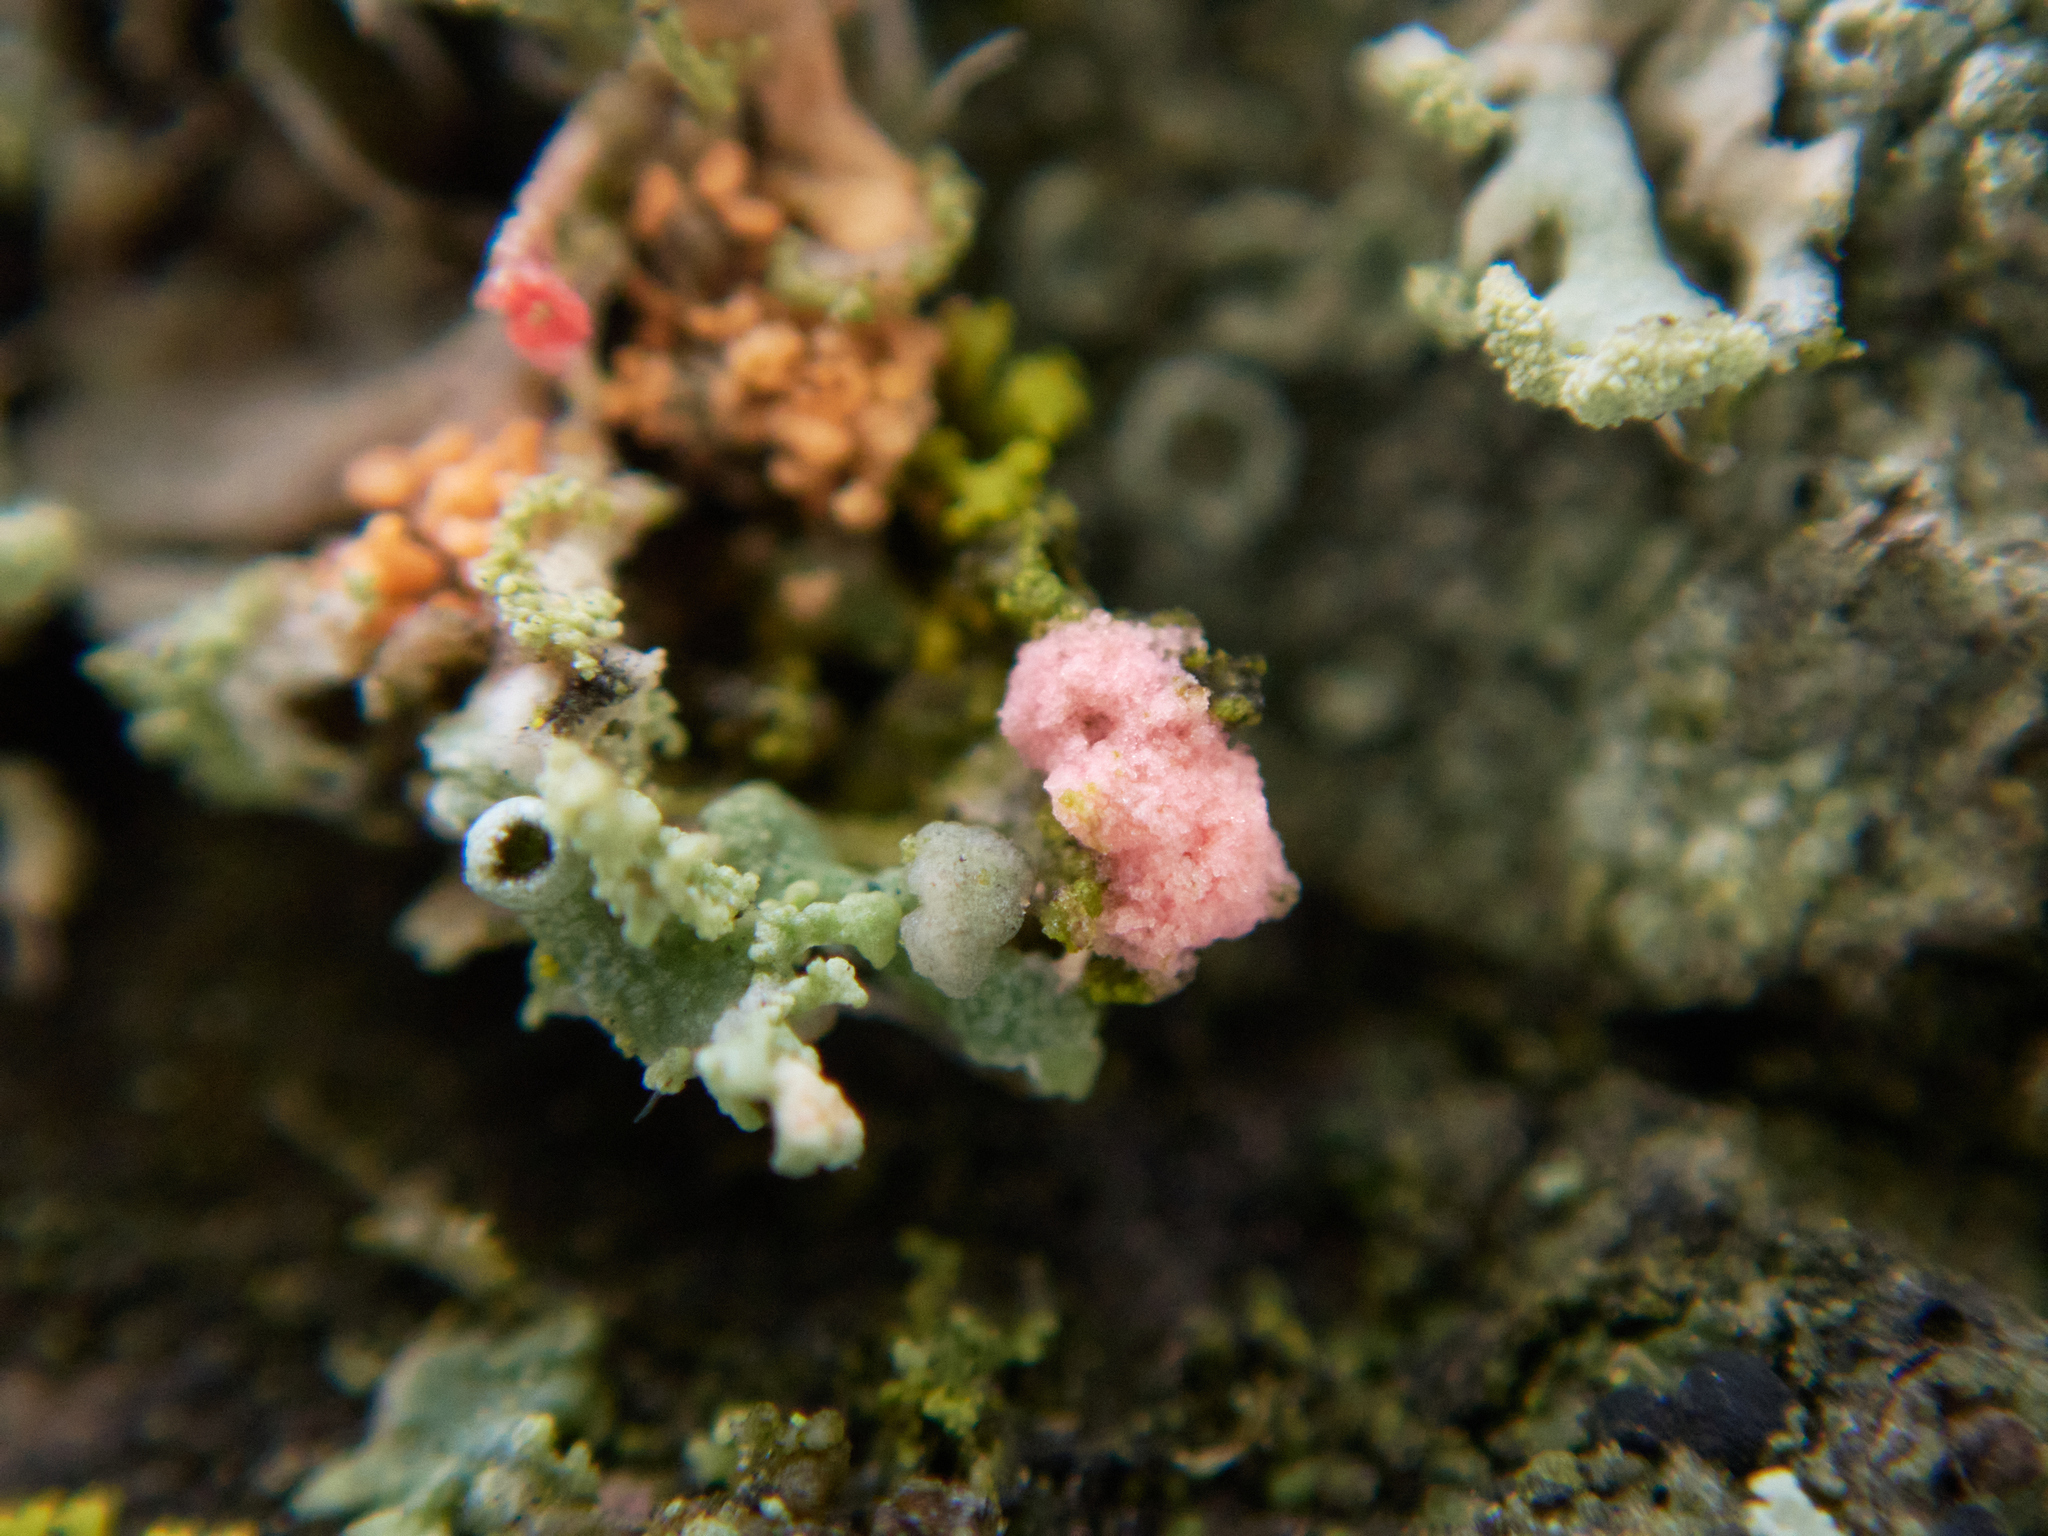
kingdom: Fungi
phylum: Ascomycota
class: Sordariomycetes
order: Hypocreales
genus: Illosporiopsis
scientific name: Illosporiopsis christiansenii
